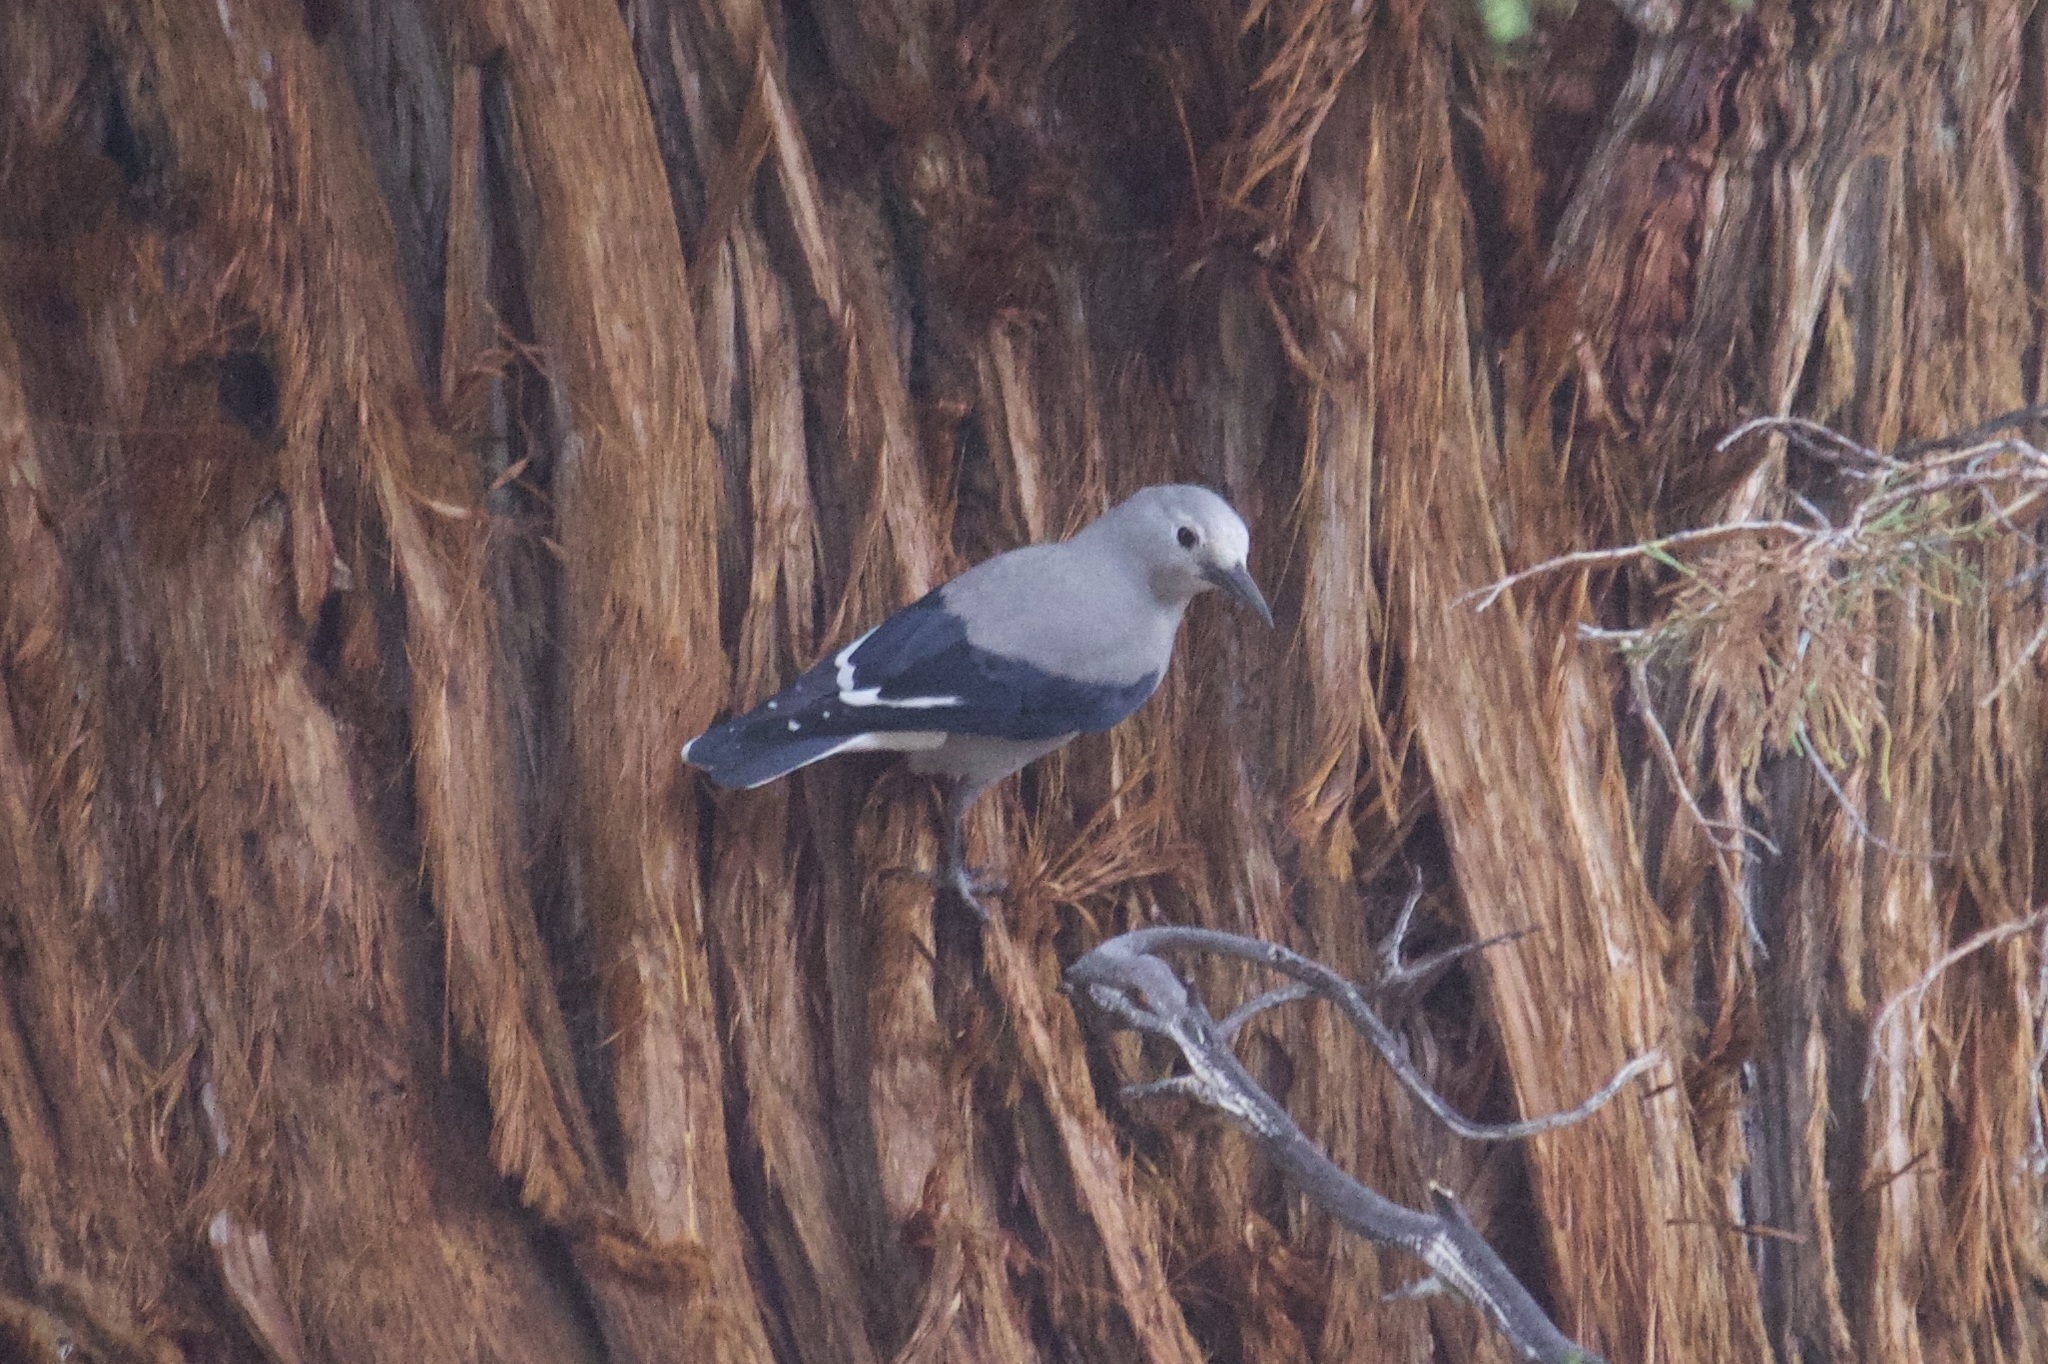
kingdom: Animalia
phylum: Chordata
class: Aves
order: Passeriformes
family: Corvidae
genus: Nucifraga
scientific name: Nucifraga columbiana
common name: Clark's nutcracker
